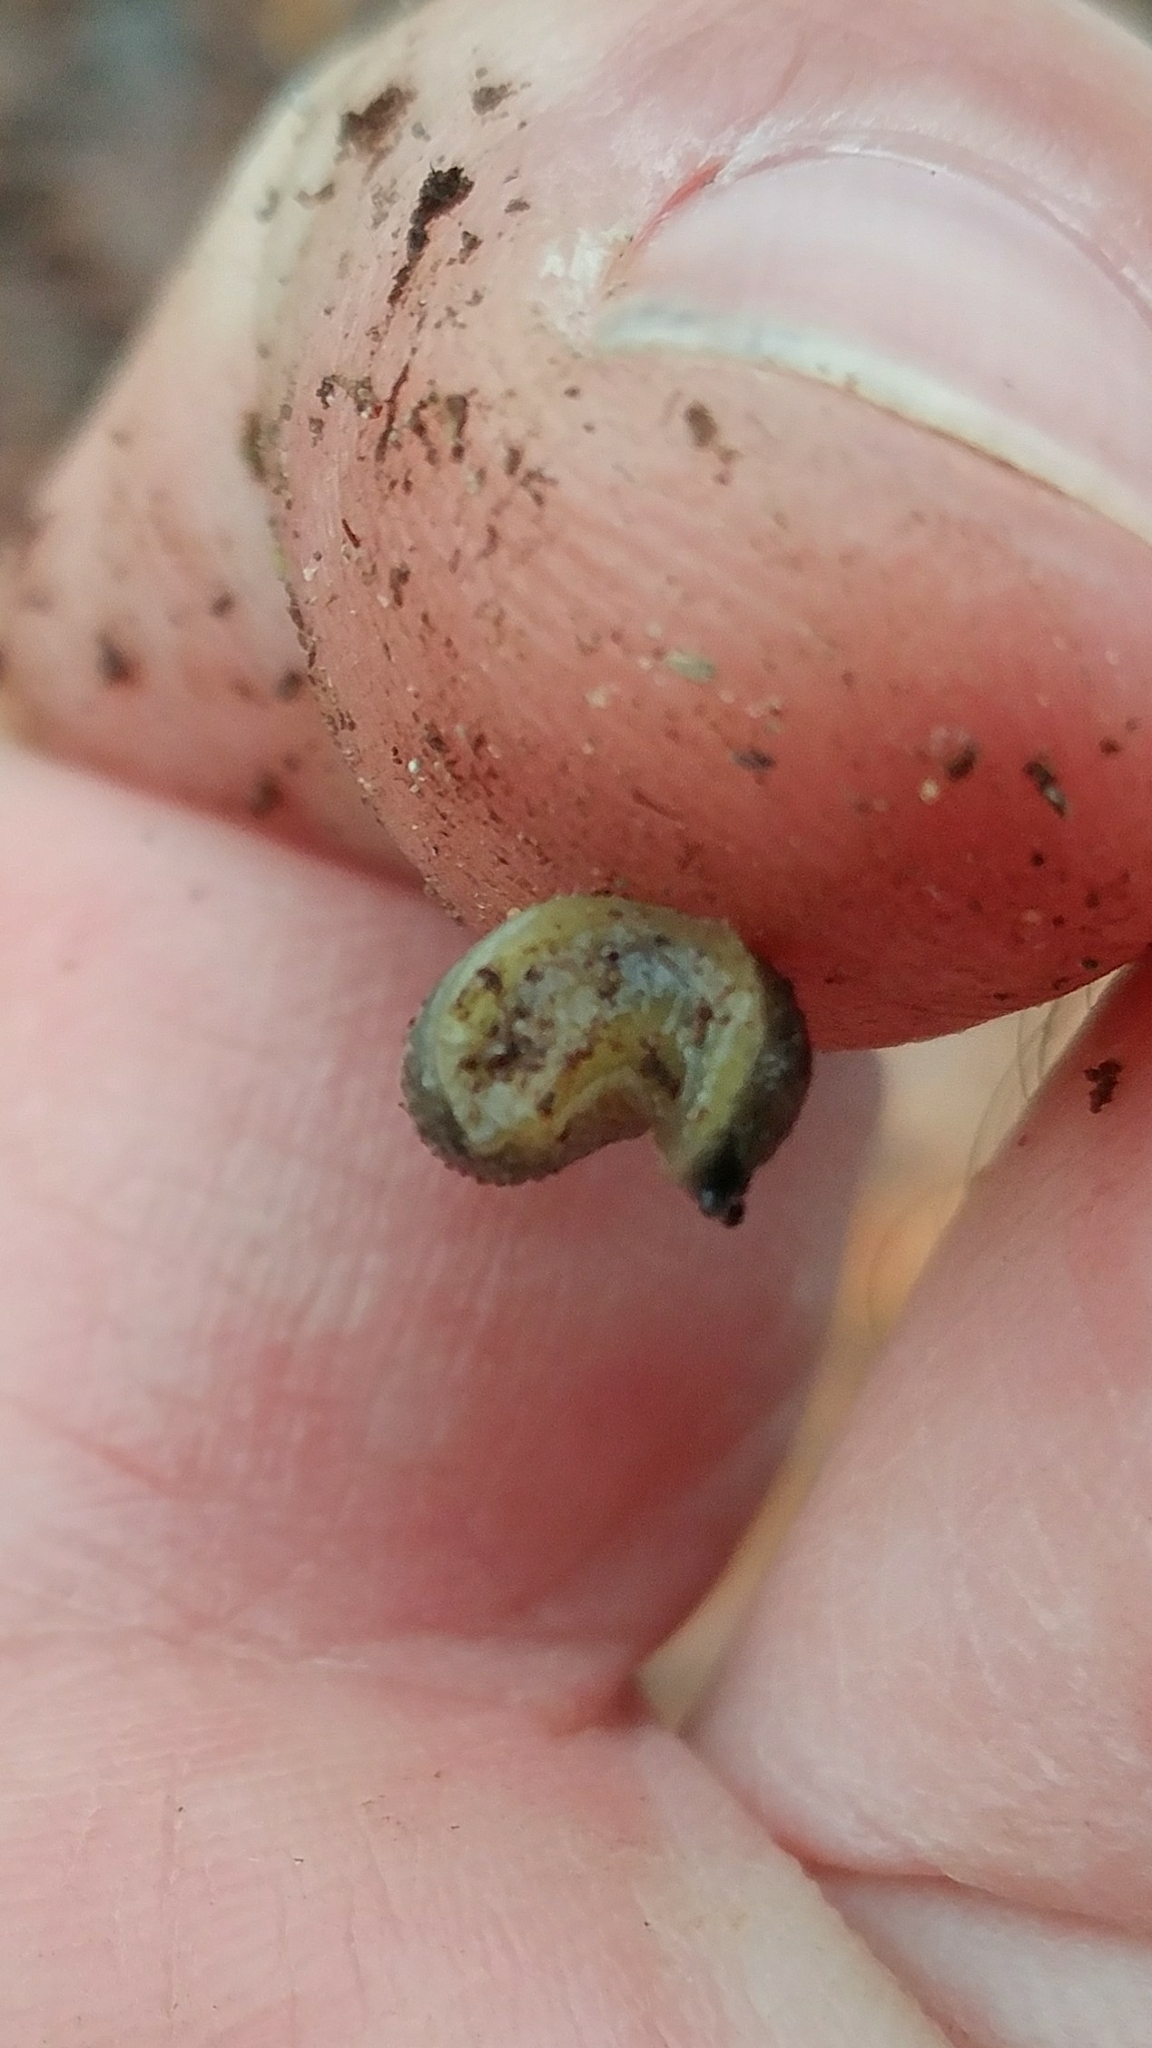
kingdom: Animalia
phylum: Mollusca
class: Gastropoda
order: Stylommatophora
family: Arionidae
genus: Arion
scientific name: Arion intermedius
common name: Hedgehog slug
